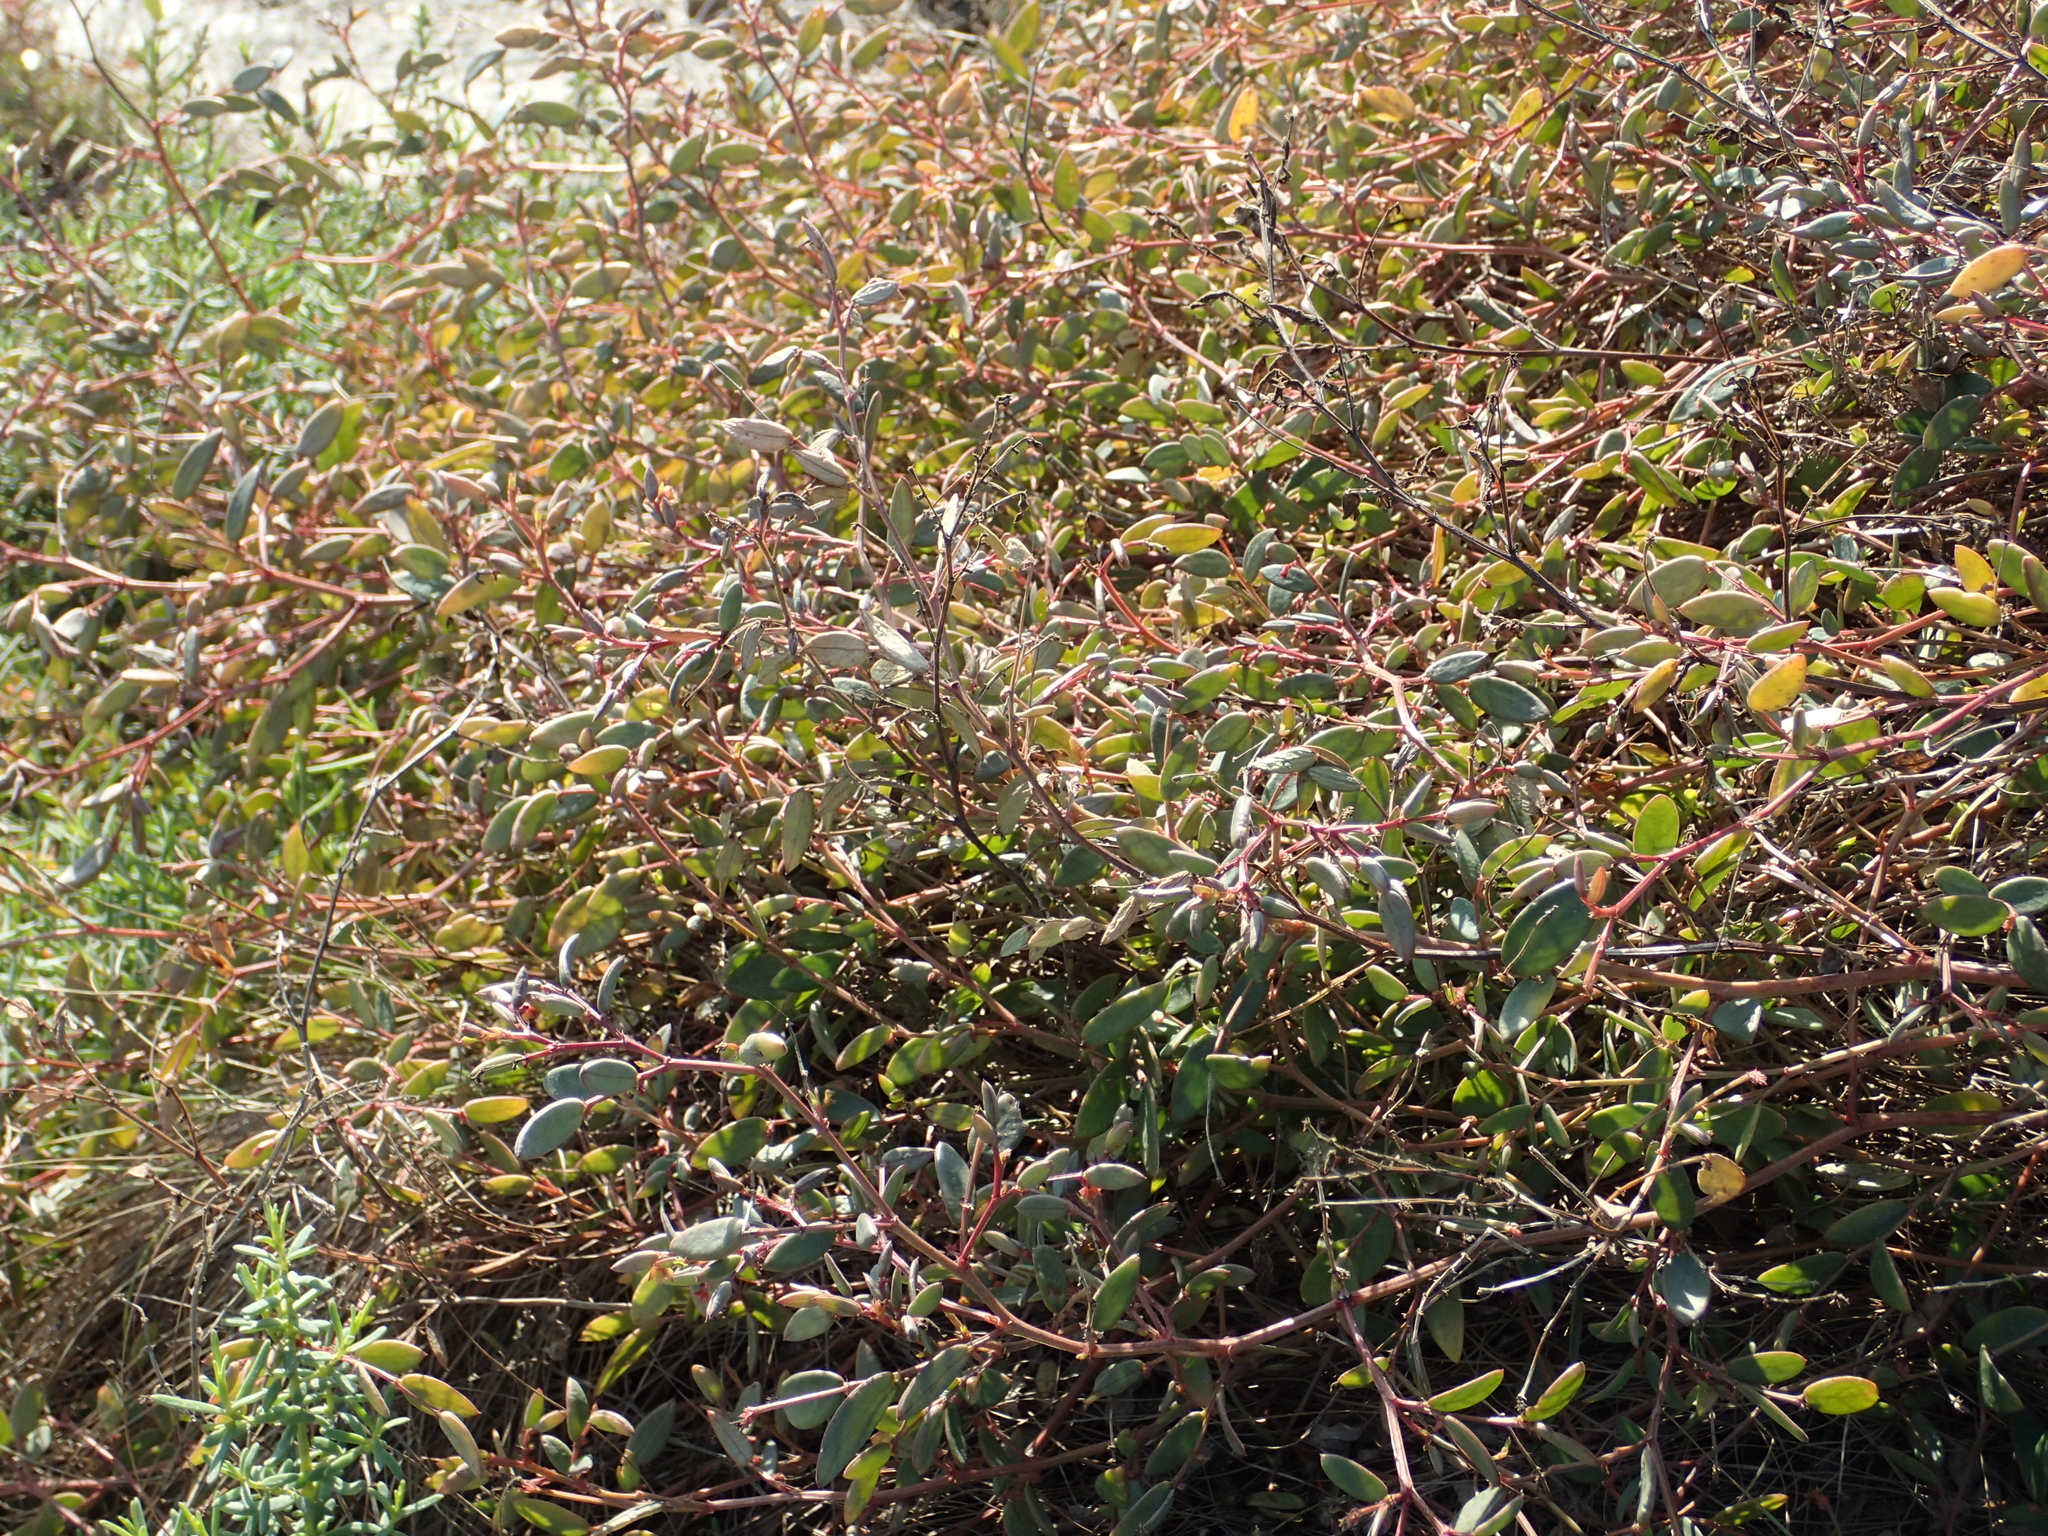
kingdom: Plantae
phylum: Tracheophyta
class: Magnoliopsida
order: Malpighiales
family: Phyllanthaceae
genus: Synostemon
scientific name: Synostemon bacciformis
